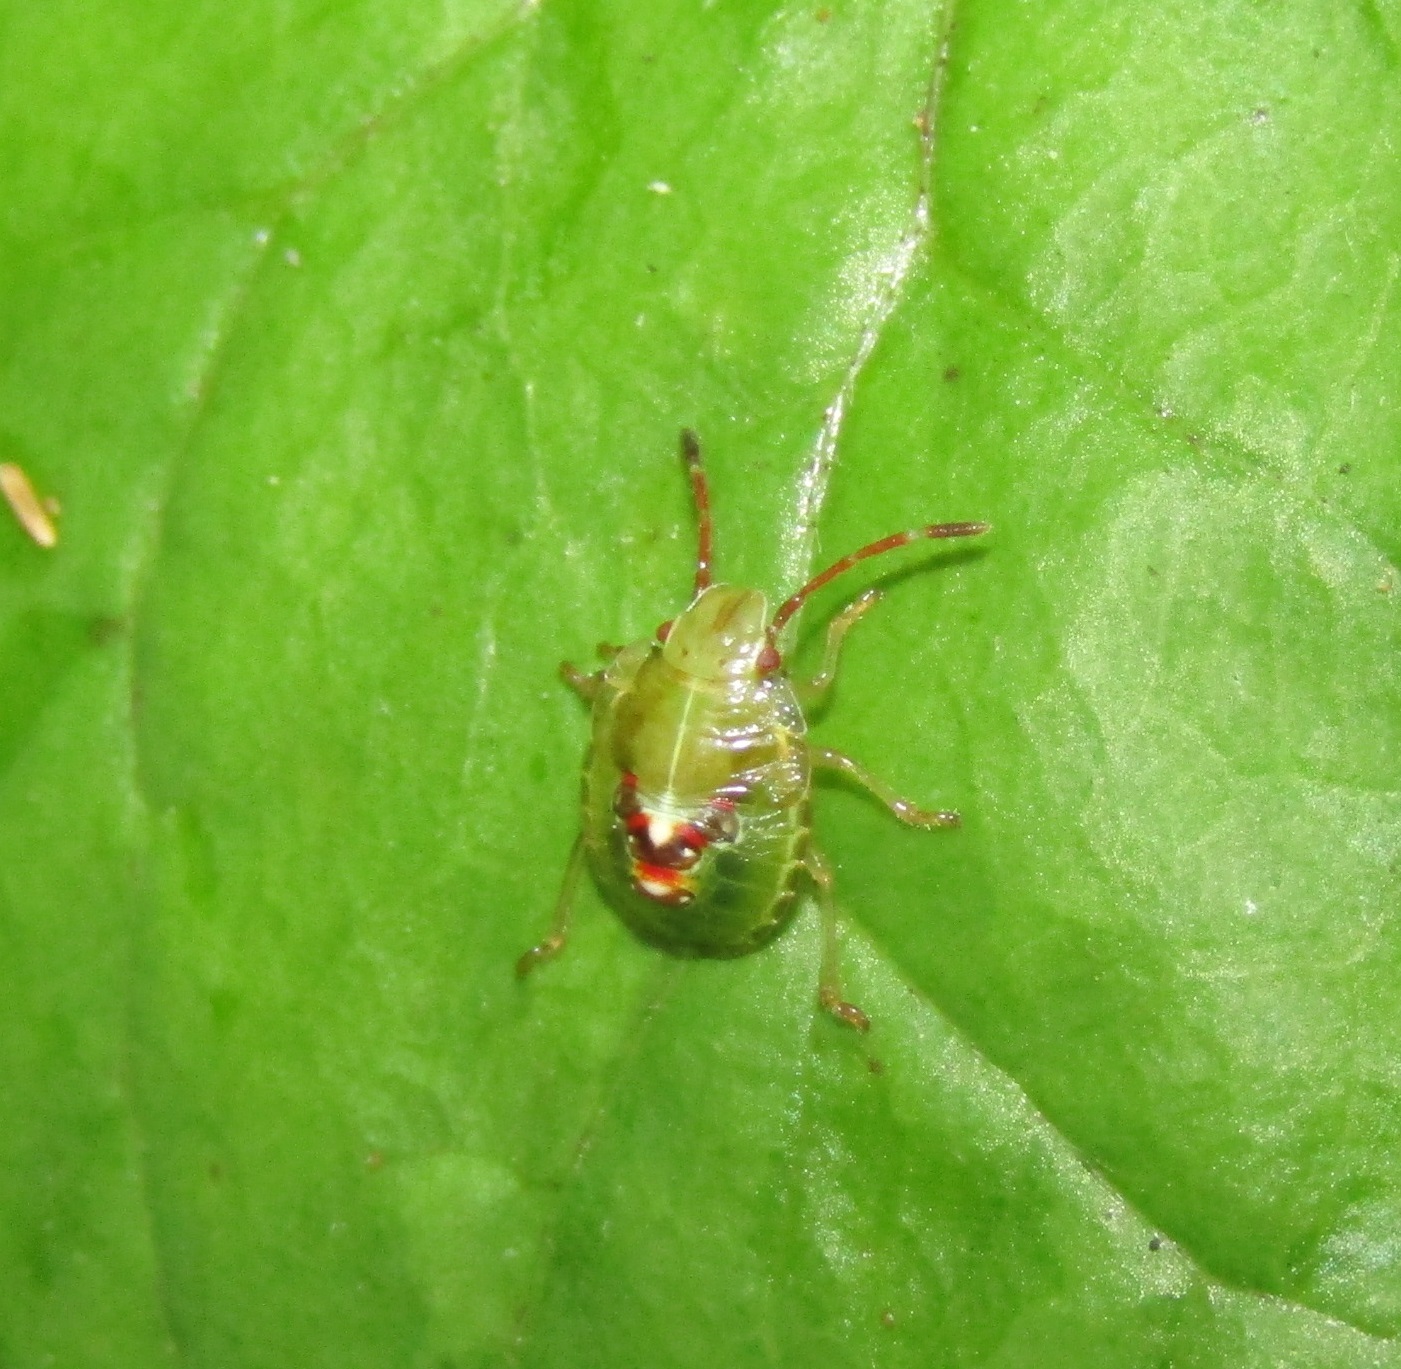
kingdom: Animalia
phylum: Arthropoda
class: Insecta
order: Hemiptera
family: Acanthosomatidae
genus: Oncacontias
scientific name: Oncacontias vittatus
